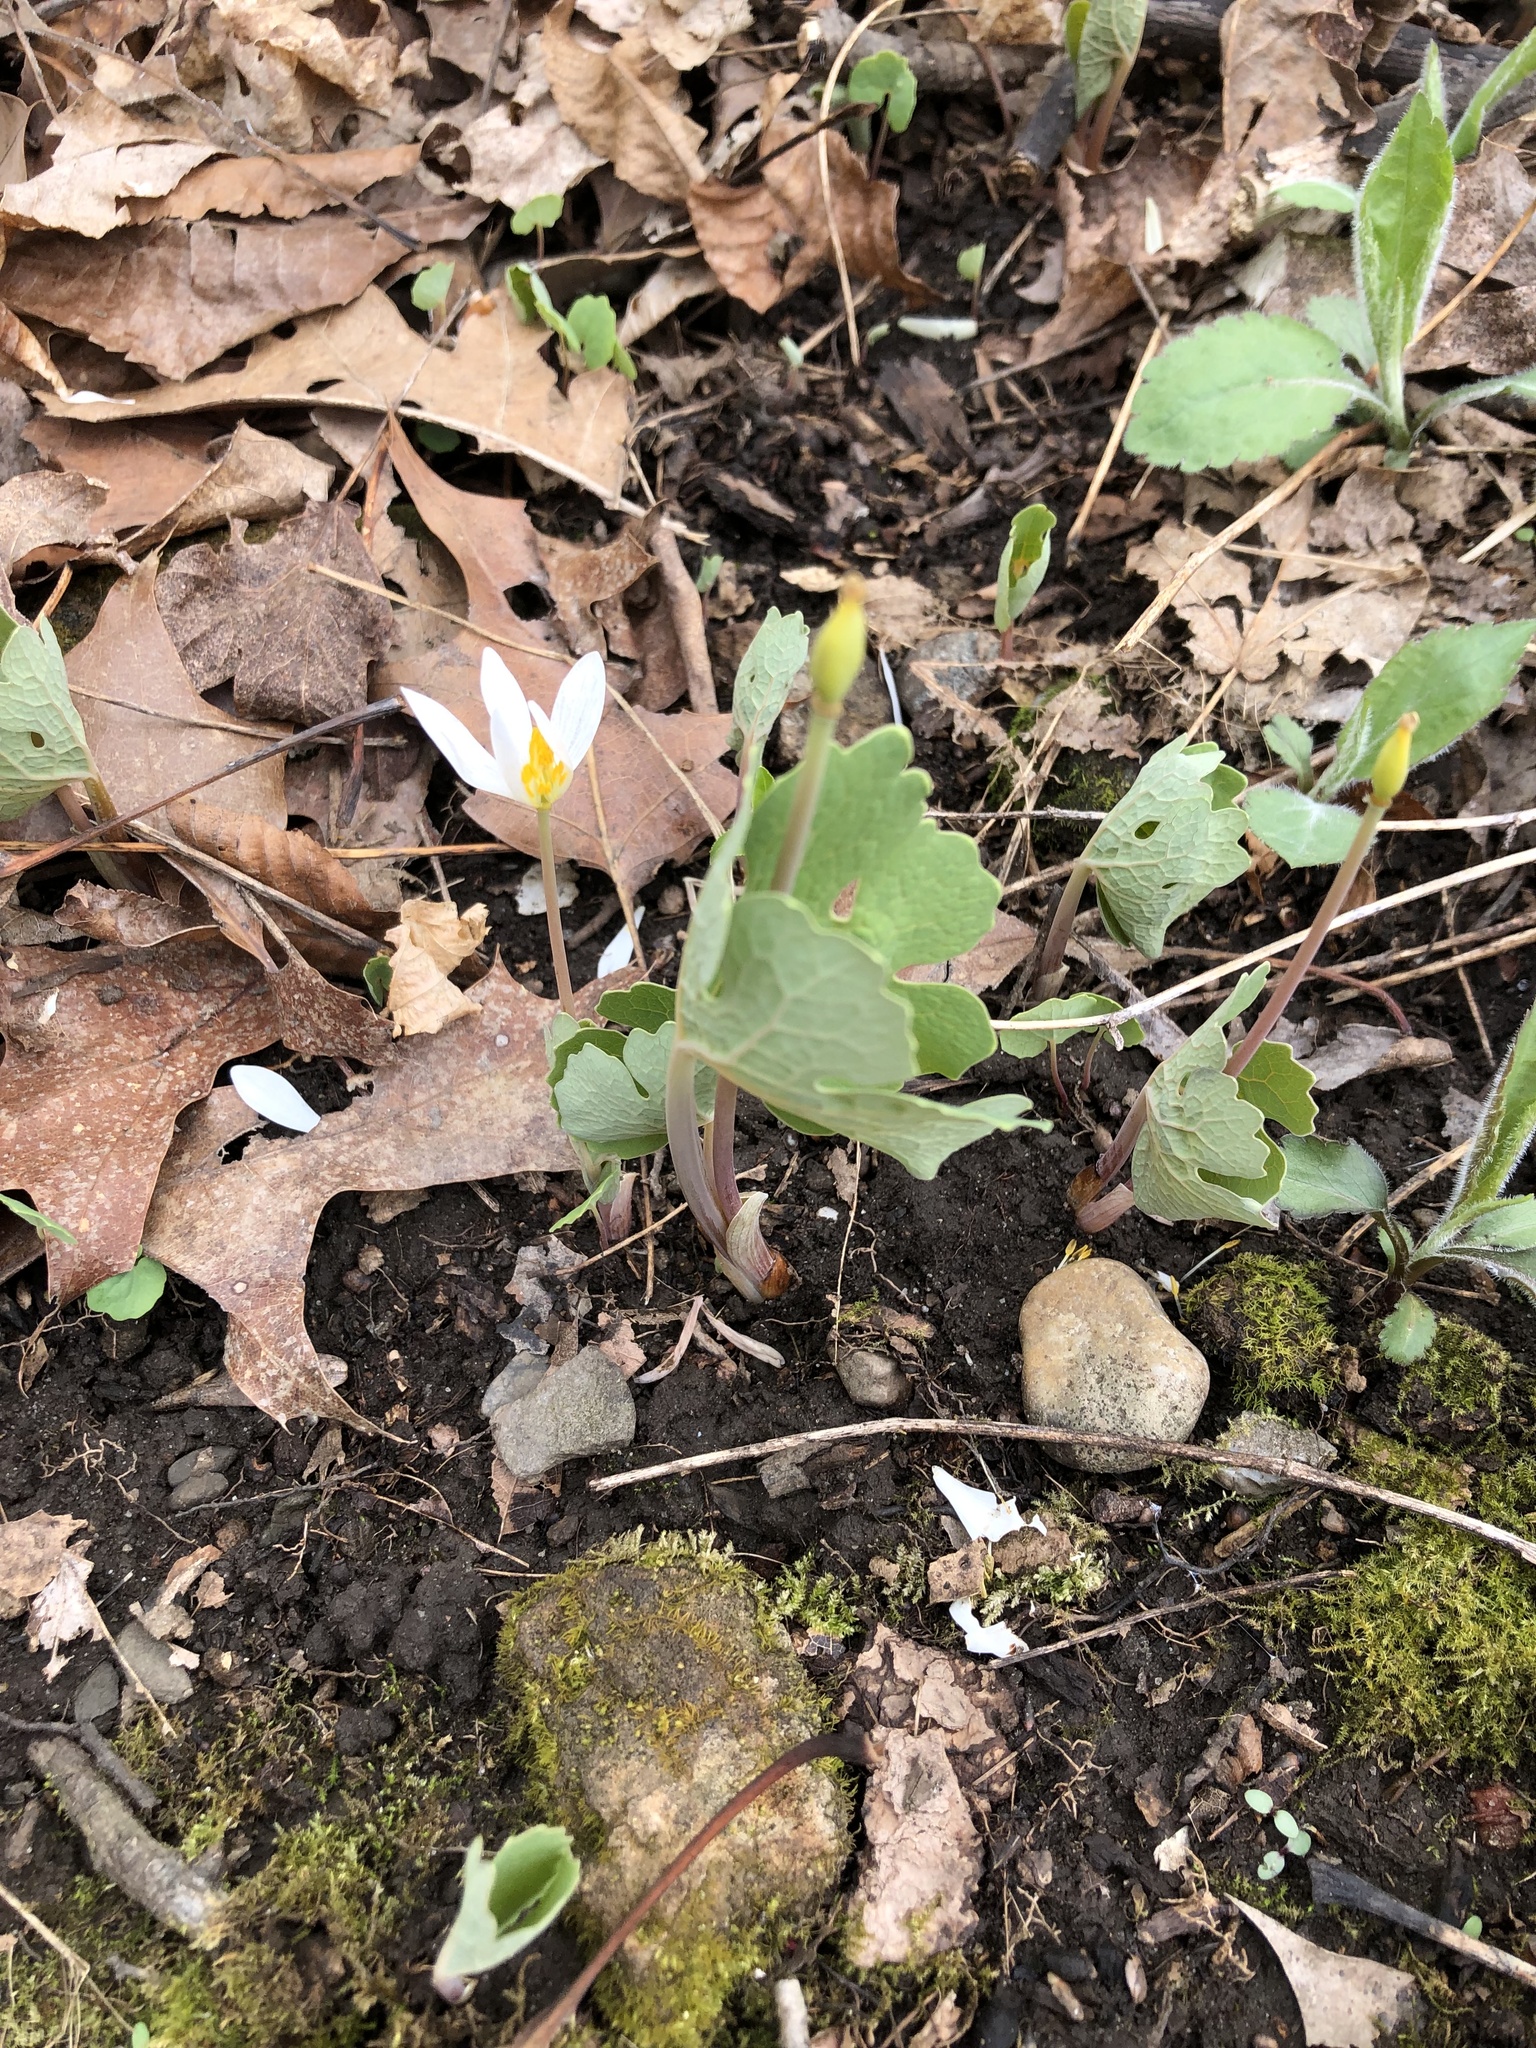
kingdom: Plantae
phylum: Tracheophyta
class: Magnoliopsida
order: Ranunculales
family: Papaveraceae
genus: Sanguinaria
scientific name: Sanguinaria canadensis
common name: Bloodroot
